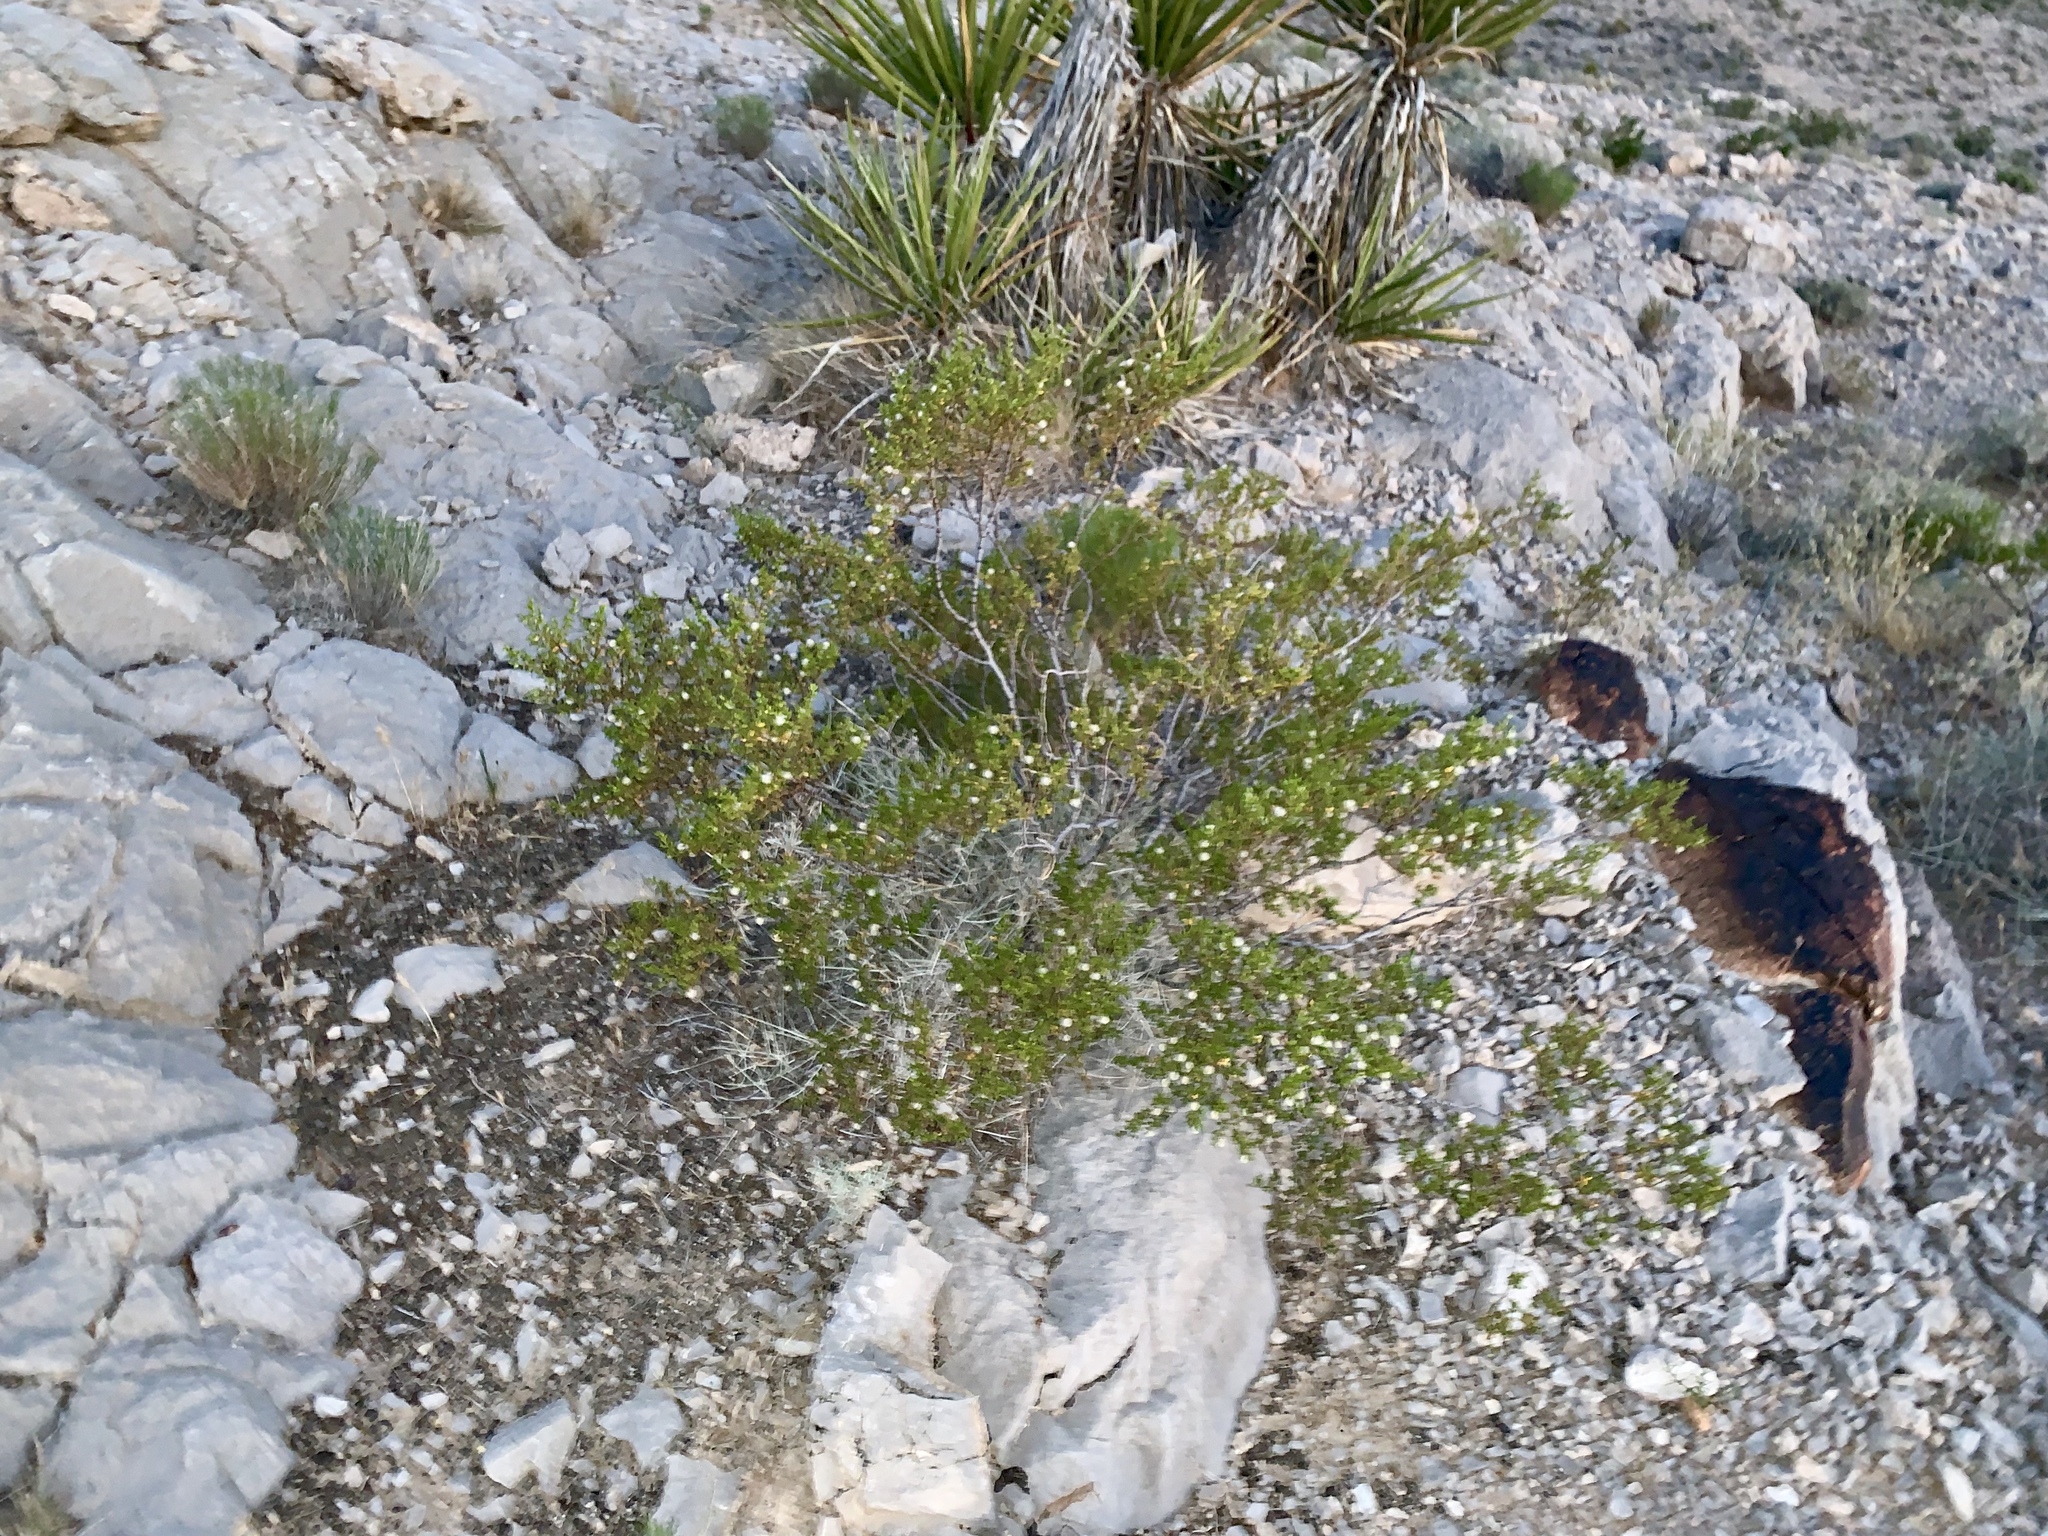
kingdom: Plantae
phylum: Tracheophyta
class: Magnoliopsida
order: Zygophyllales
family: Zygophyllaceae
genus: Larrea
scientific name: Larrea tridentata
